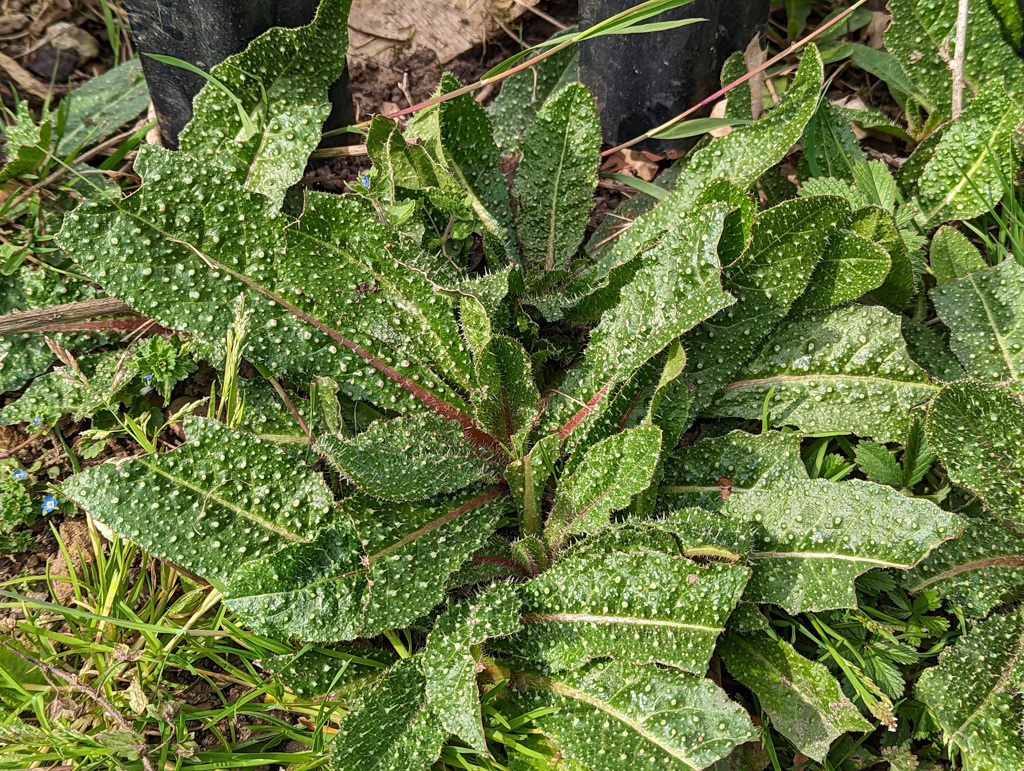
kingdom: Plantae
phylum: Tracheophyta
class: Magnoliopsida
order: Asterales
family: Asteraceae
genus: Helminthotheca
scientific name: Helminthotheca echioides
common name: Ox-tongue
